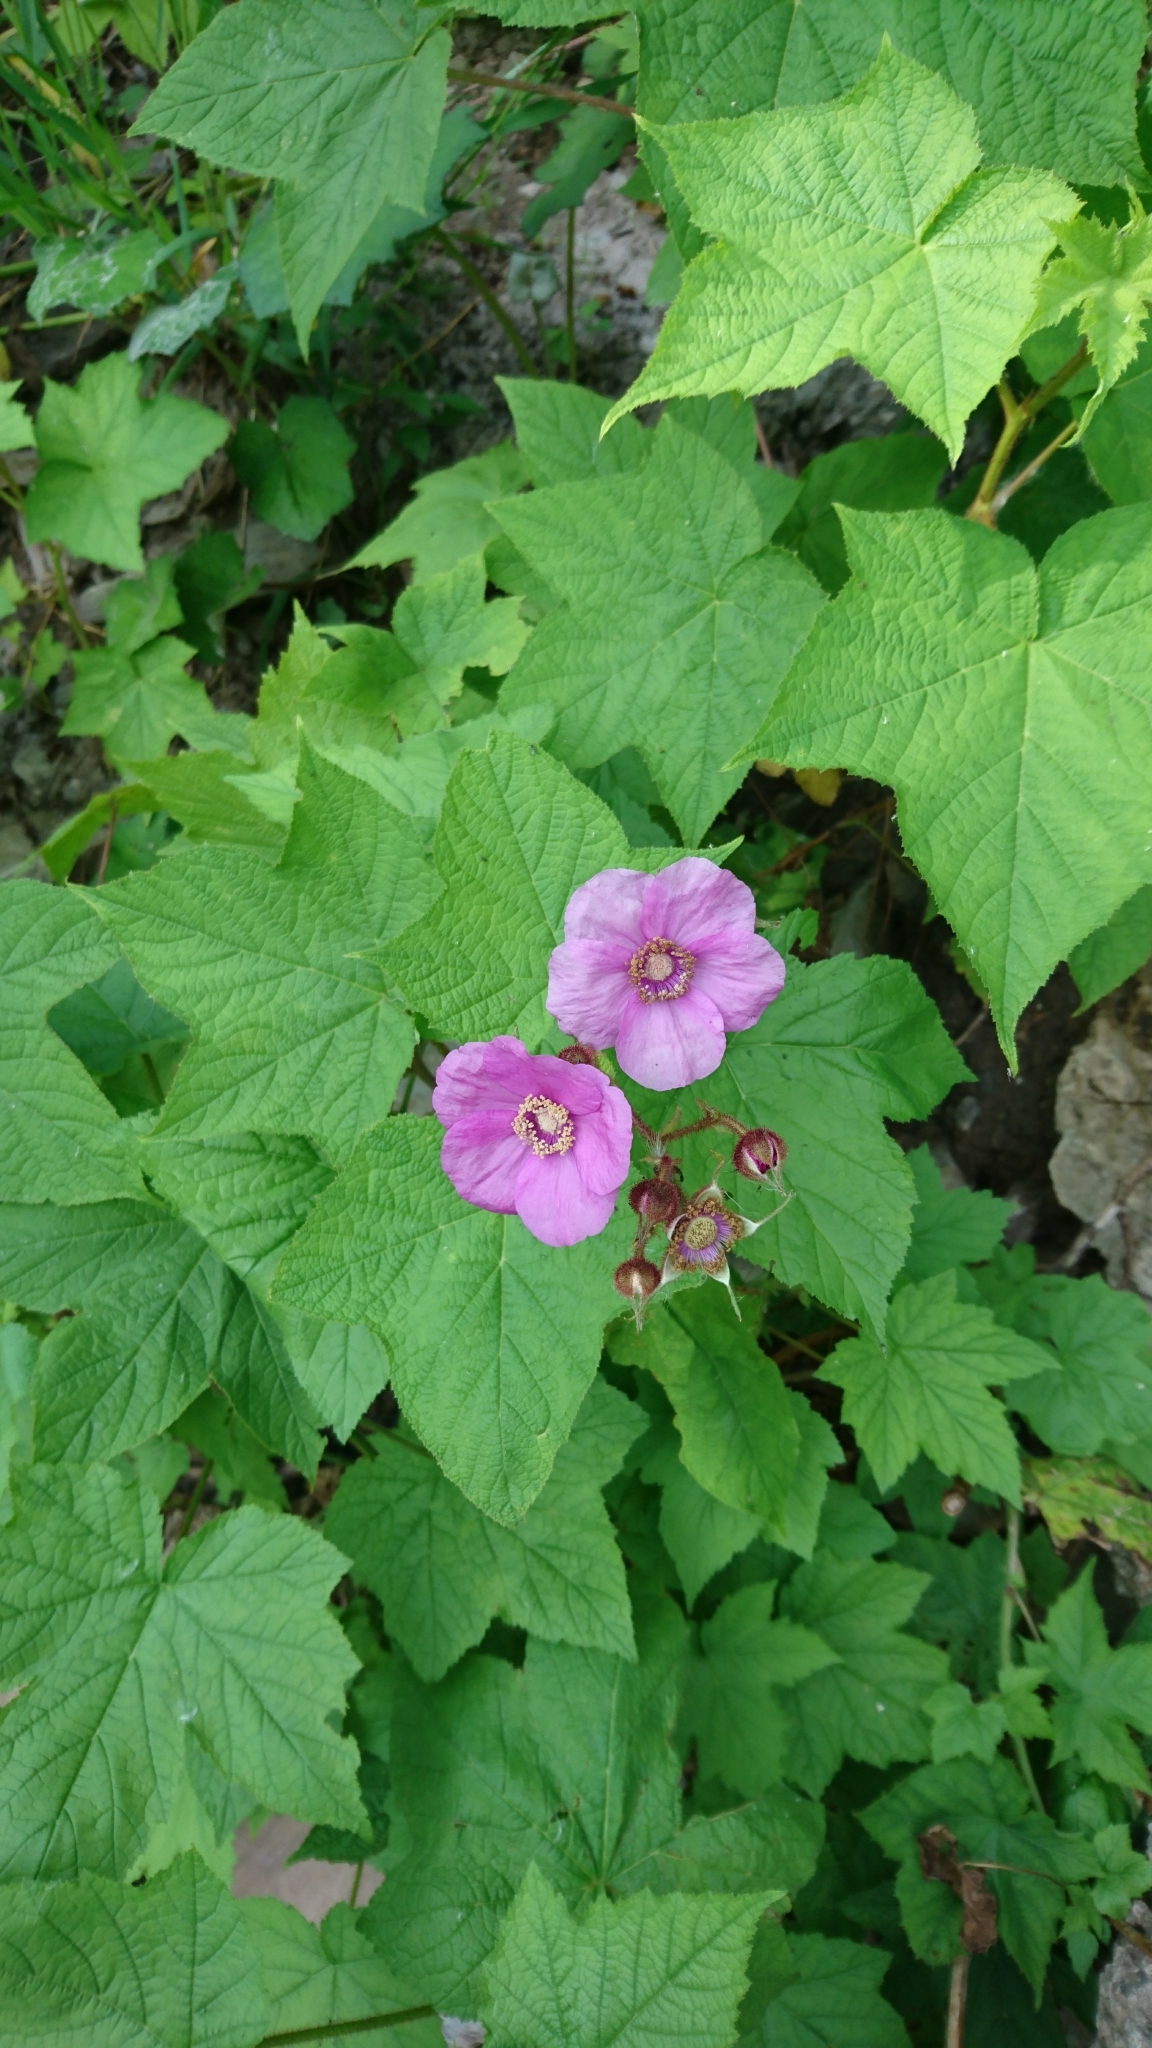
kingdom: Plantae
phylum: Tracheophyta
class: Magnoliopsida
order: Rosales
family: Rosaceae
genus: Rubus
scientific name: Rubus odoratus
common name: Purple-flowered raspberry
